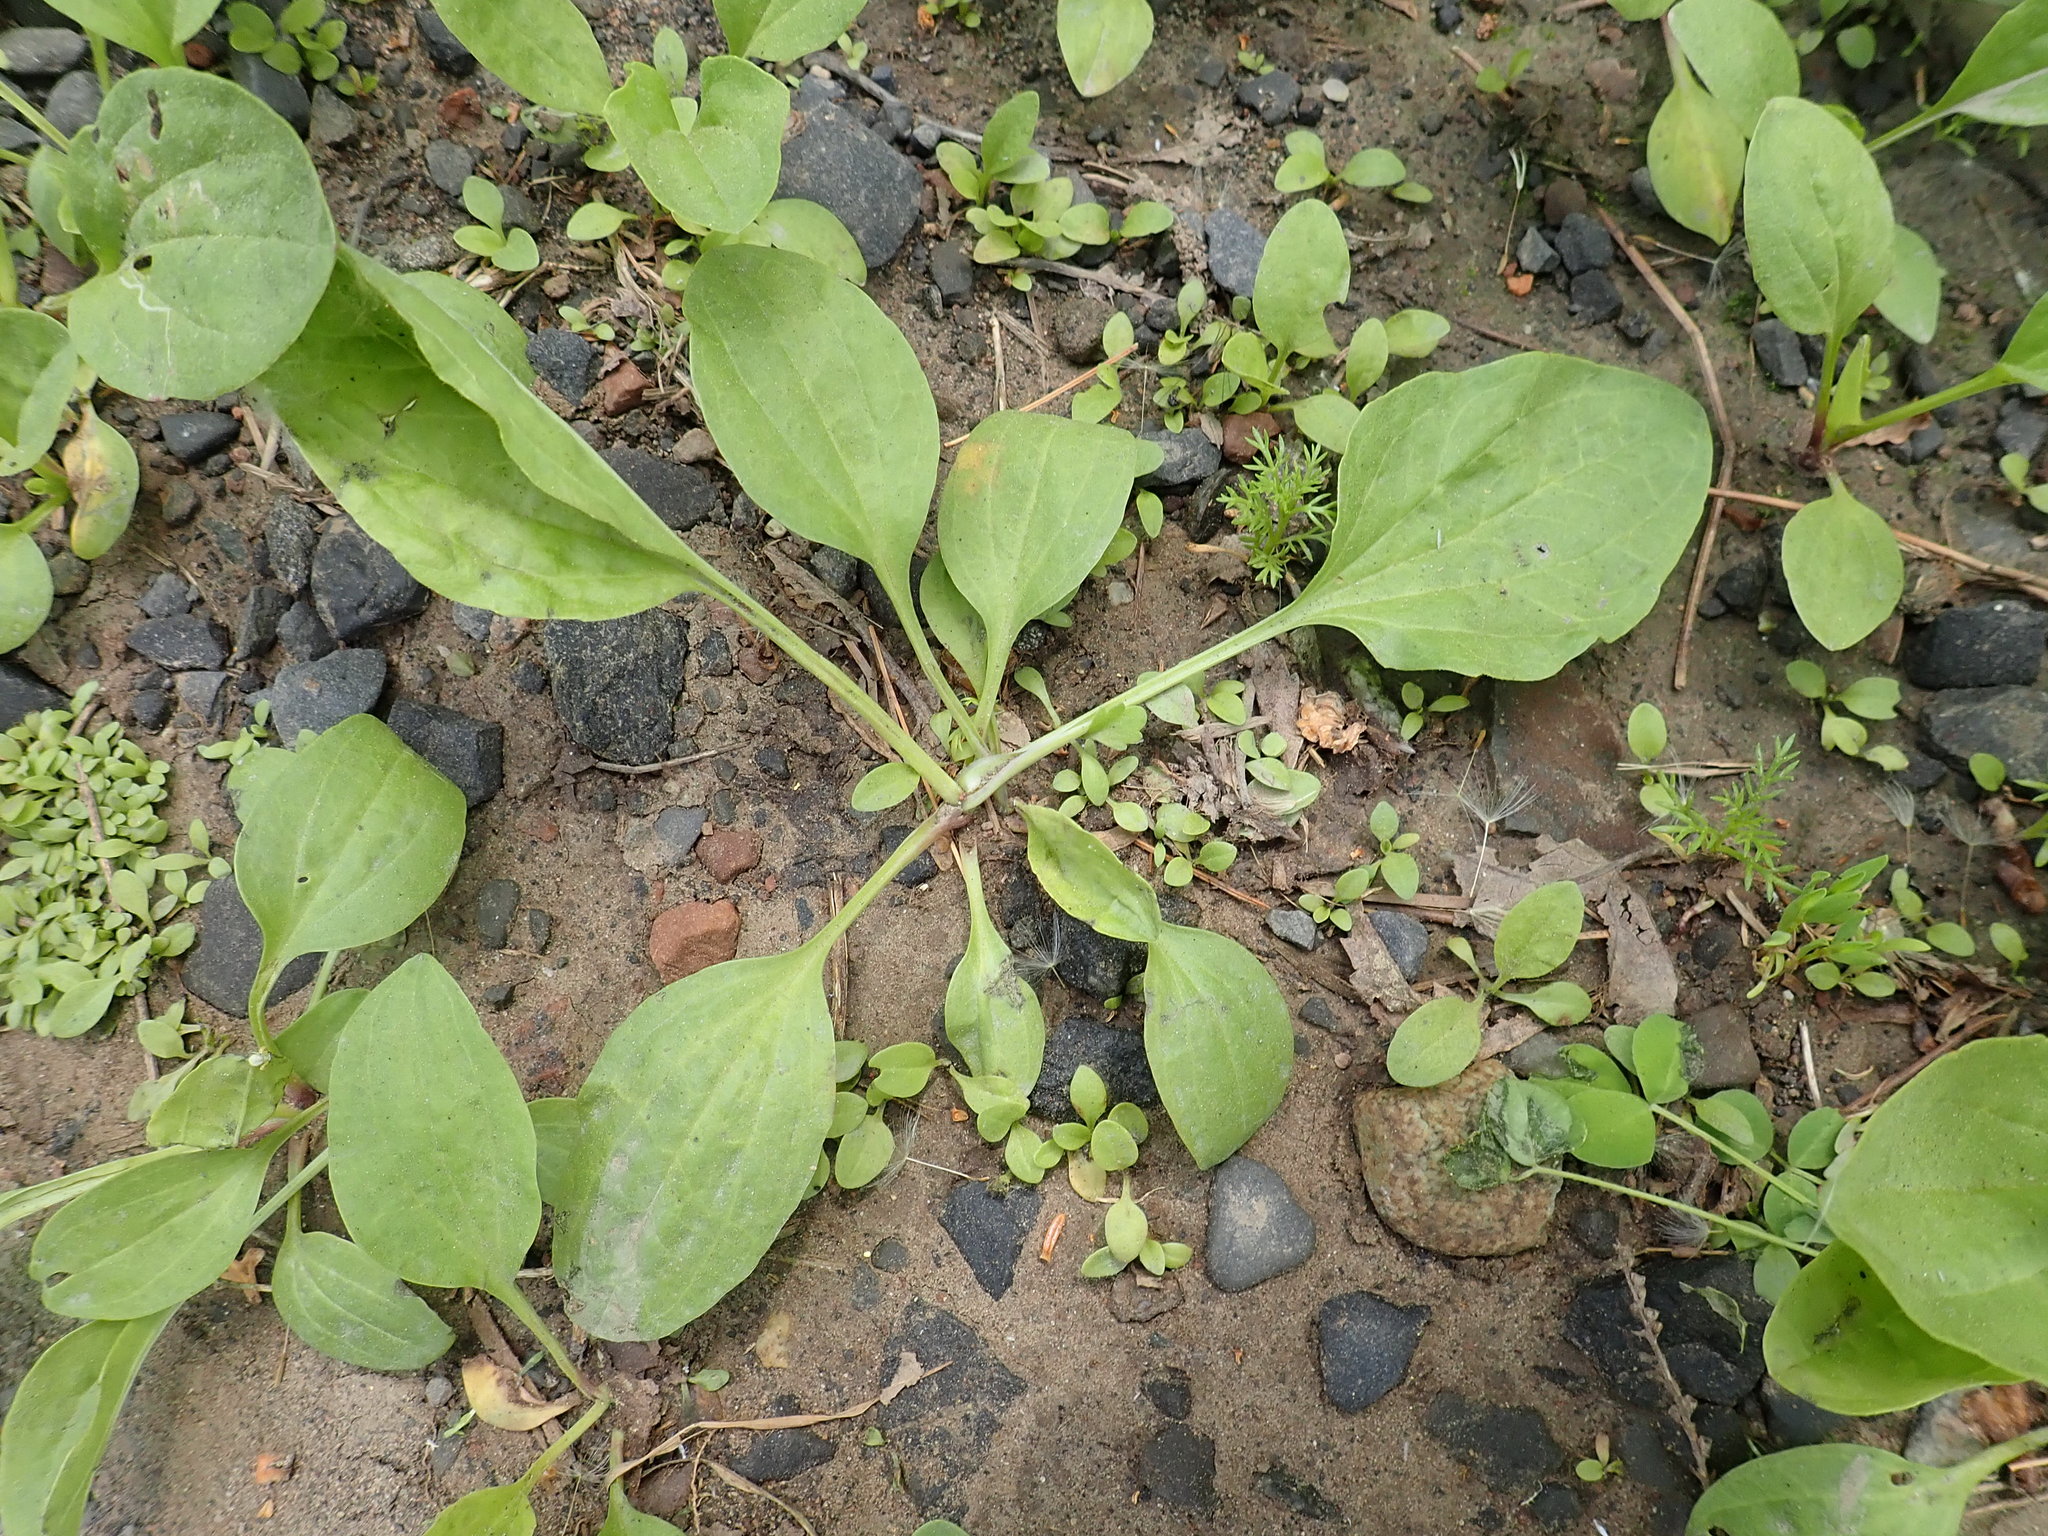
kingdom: Plantae
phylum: Tracheophyta
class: Magnoliopsida
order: Lamiales
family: Plantaginaceae
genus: Plantago
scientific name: Plantago major
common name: Common plantain
